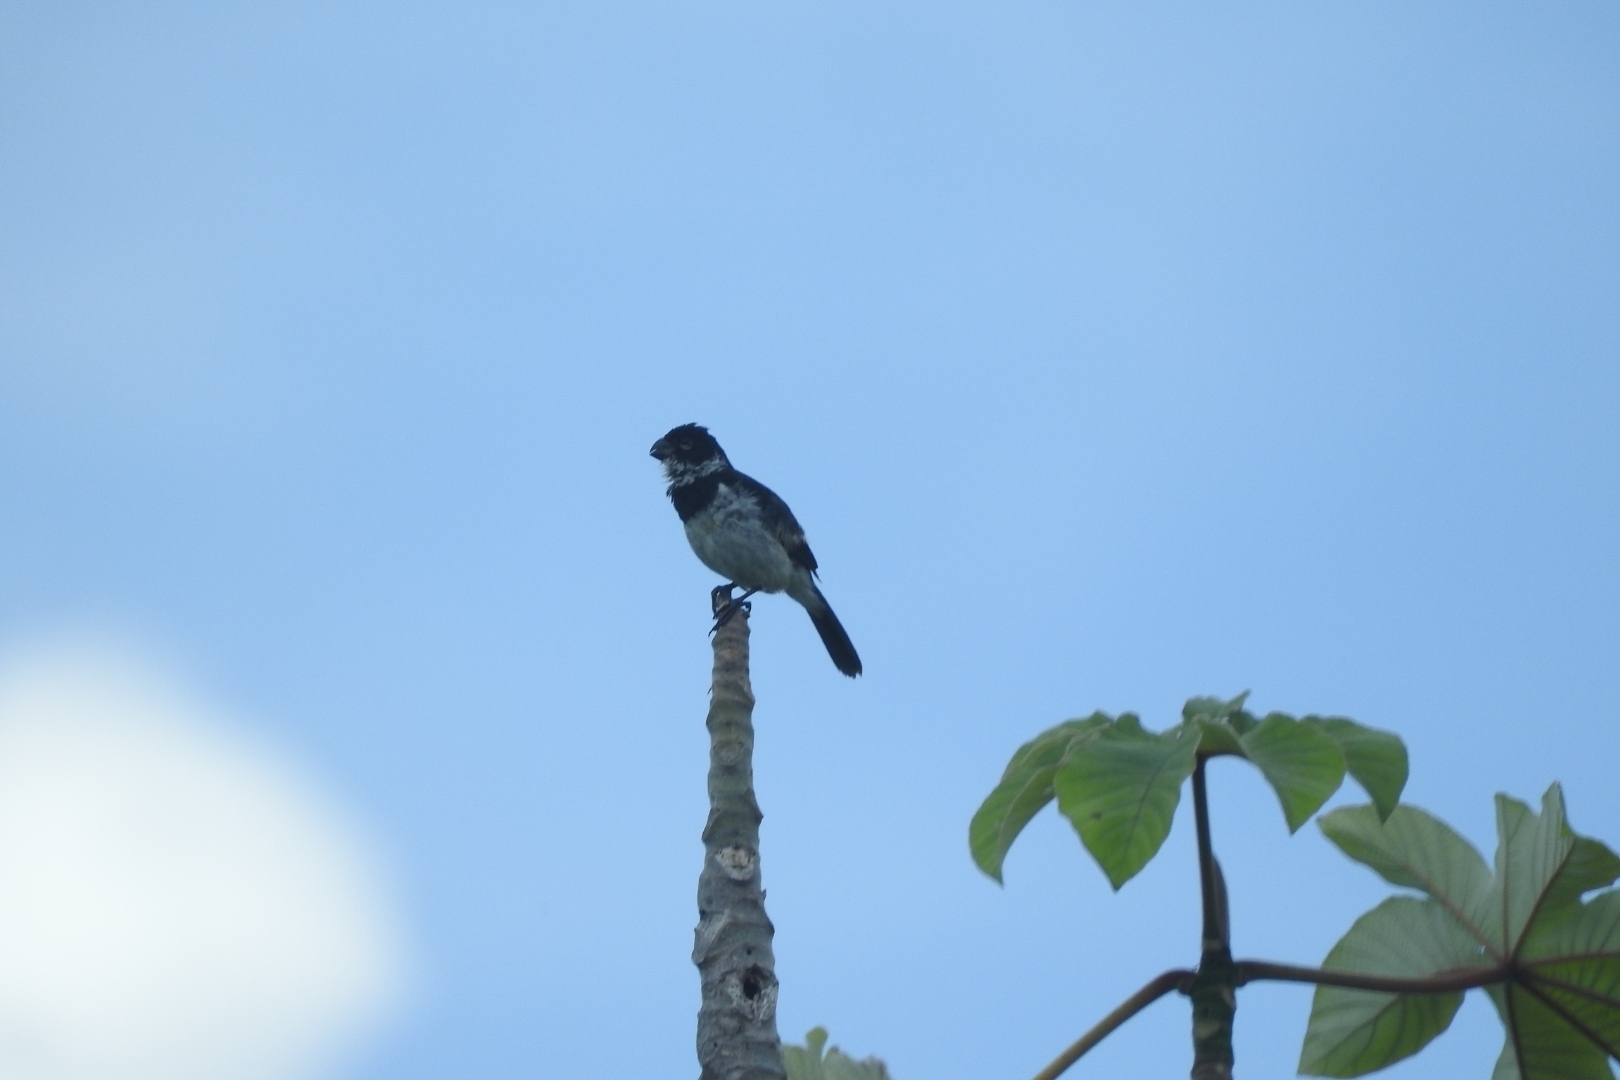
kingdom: Animalia
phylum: Chordata
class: Aves
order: Passeriformes
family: Thraupidae
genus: Sporophila
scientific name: Sporophila morelleti
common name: Morelet's seedeater
